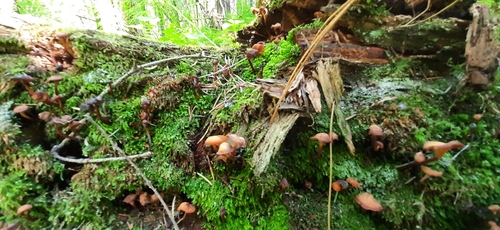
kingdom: Fungi
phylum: Basidiomycota
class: Agaricomycetes
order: Agaricales
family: Mycenaceae
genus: Xeromphalina
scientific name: Xeromphalina campanella
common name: Pinewood gingertail
